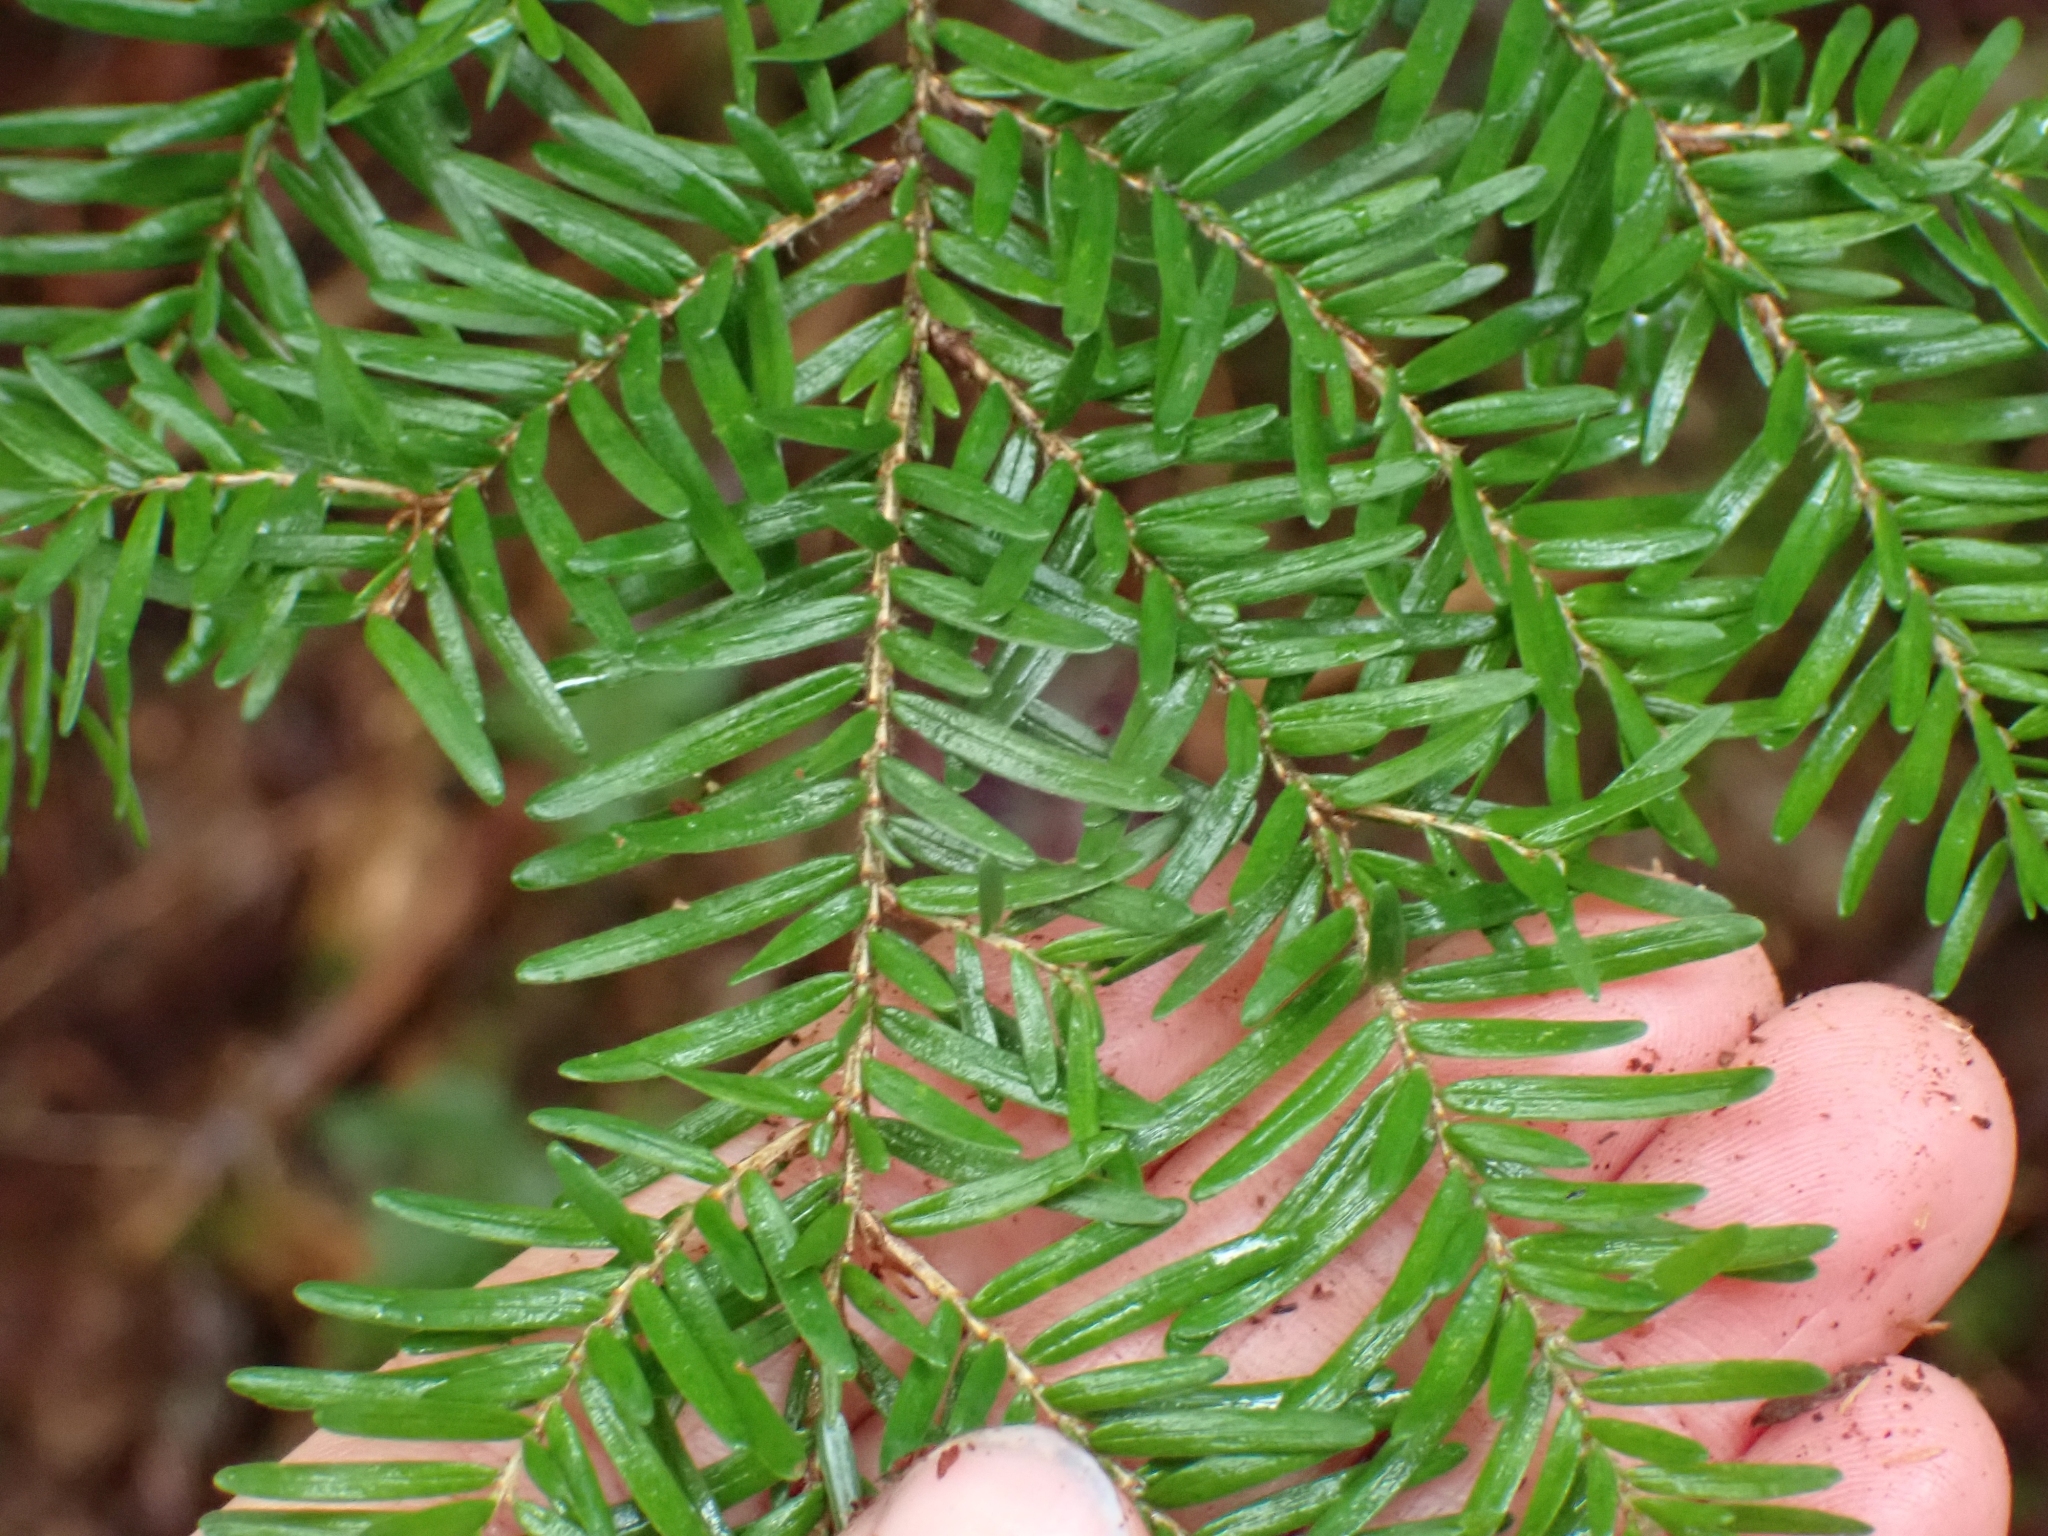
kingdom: Plantae
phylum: Tracheophyta
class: Pinopsida
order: Pinales
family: Pinaceae
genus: Tsuga
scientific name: Tsuga heterophylla
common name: Western hemlock
